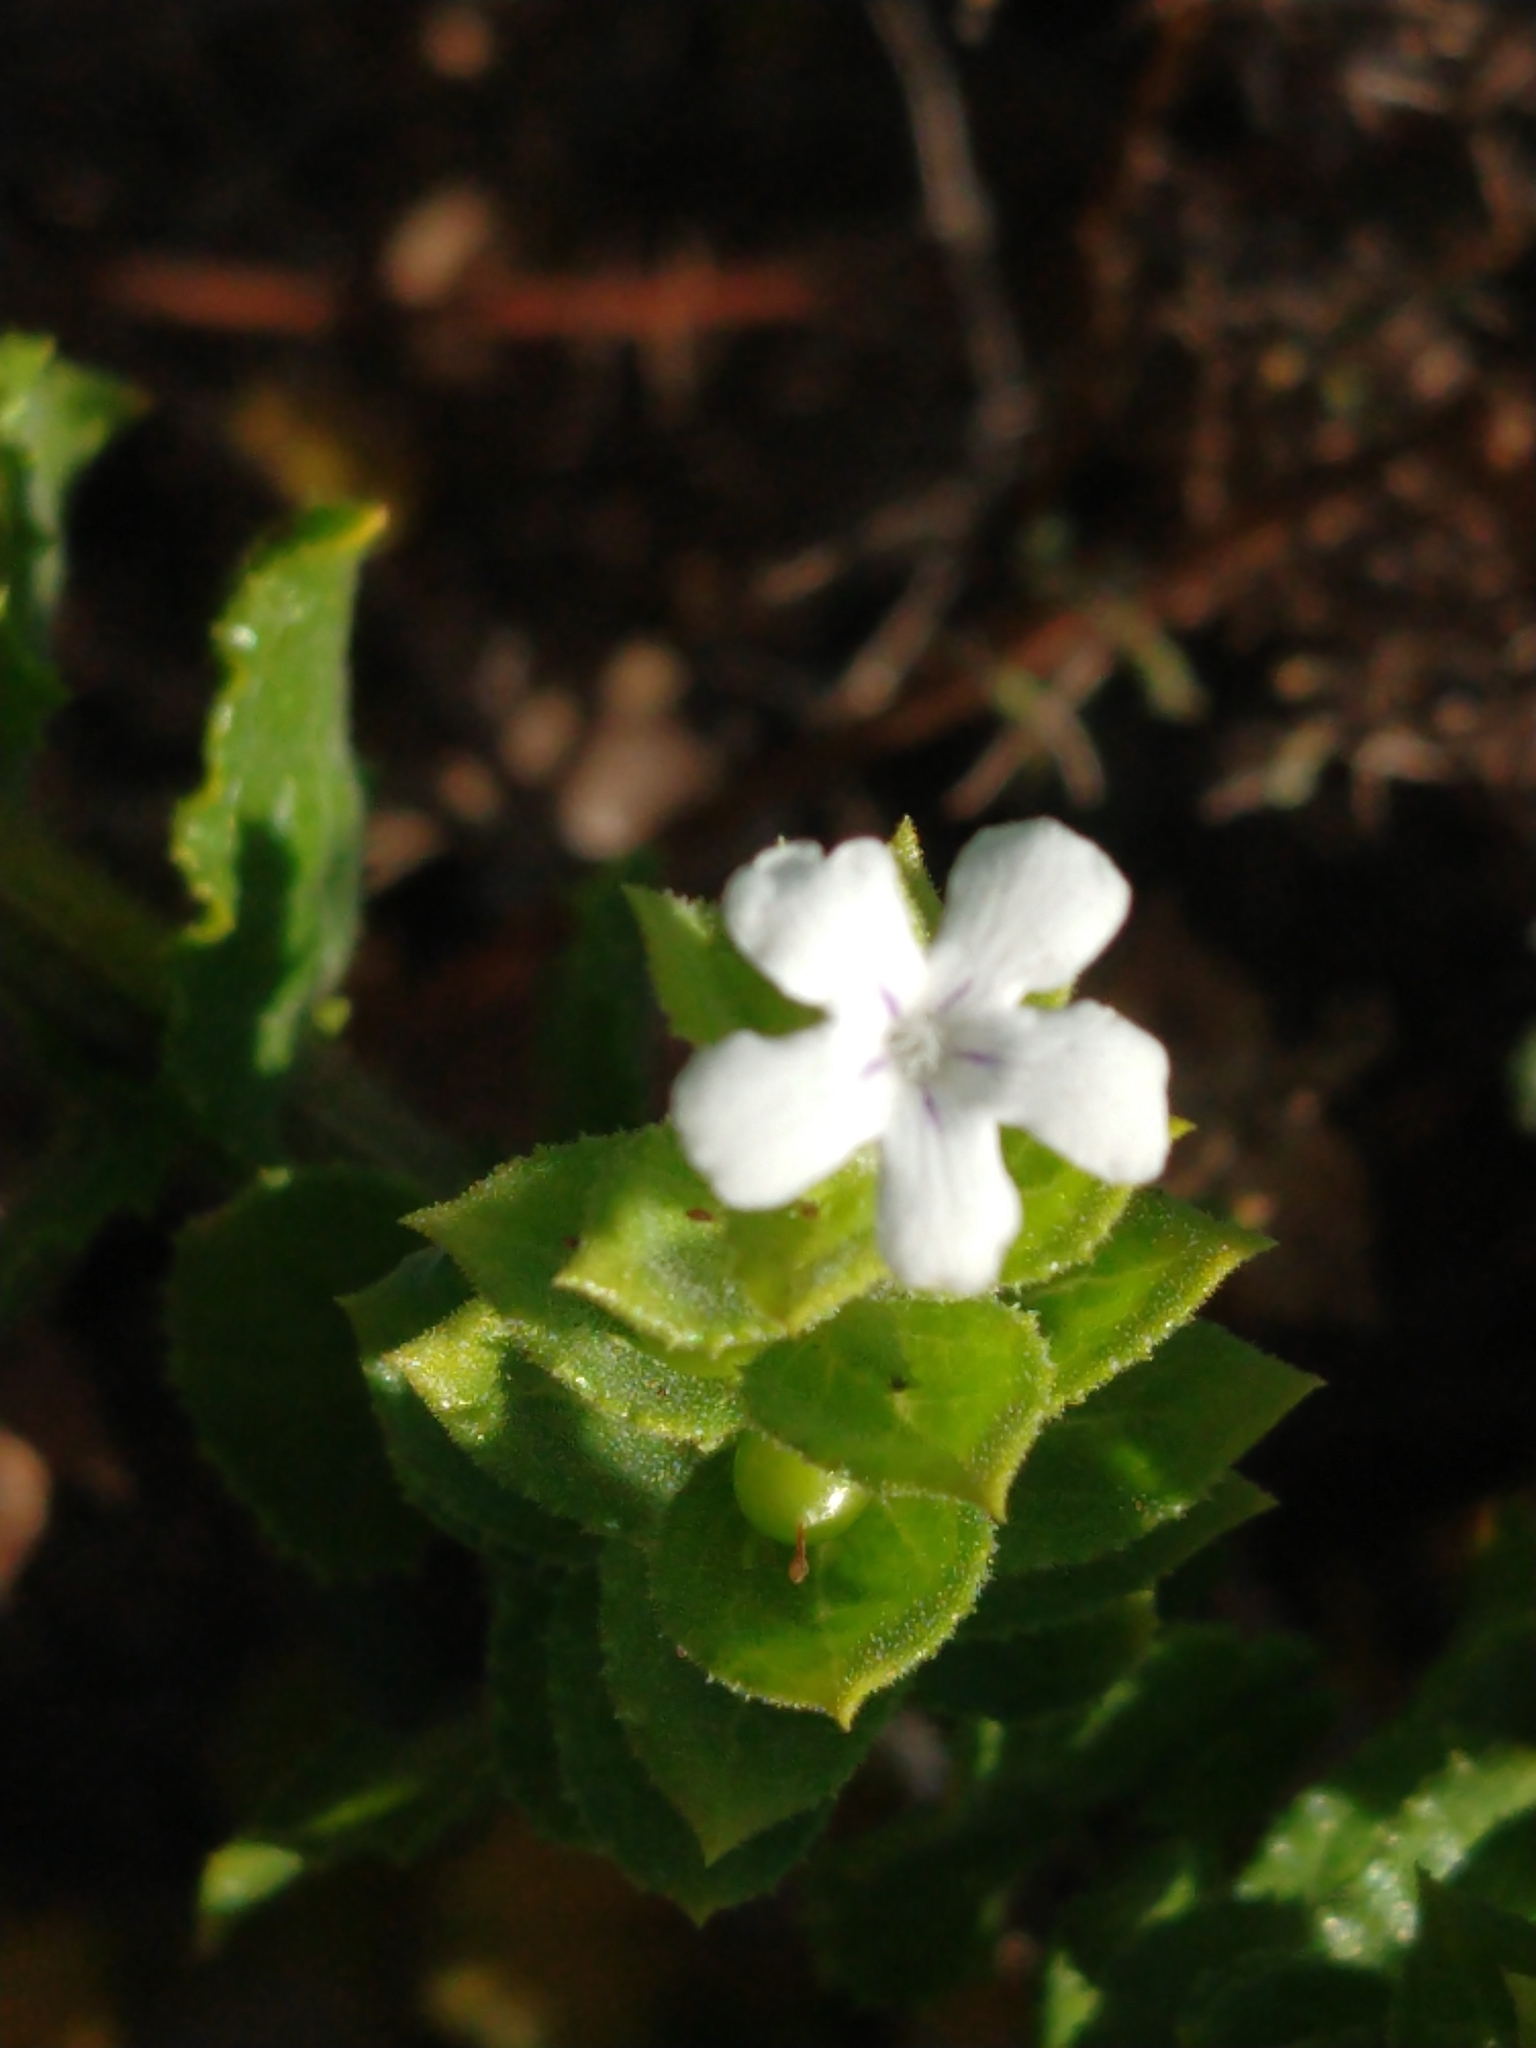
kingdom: Plantae
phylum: Tracheophyta
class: Magnoliopsida
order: Lamiales
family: Scrophulariaceae
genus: Oftia
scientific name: Oftia africana
